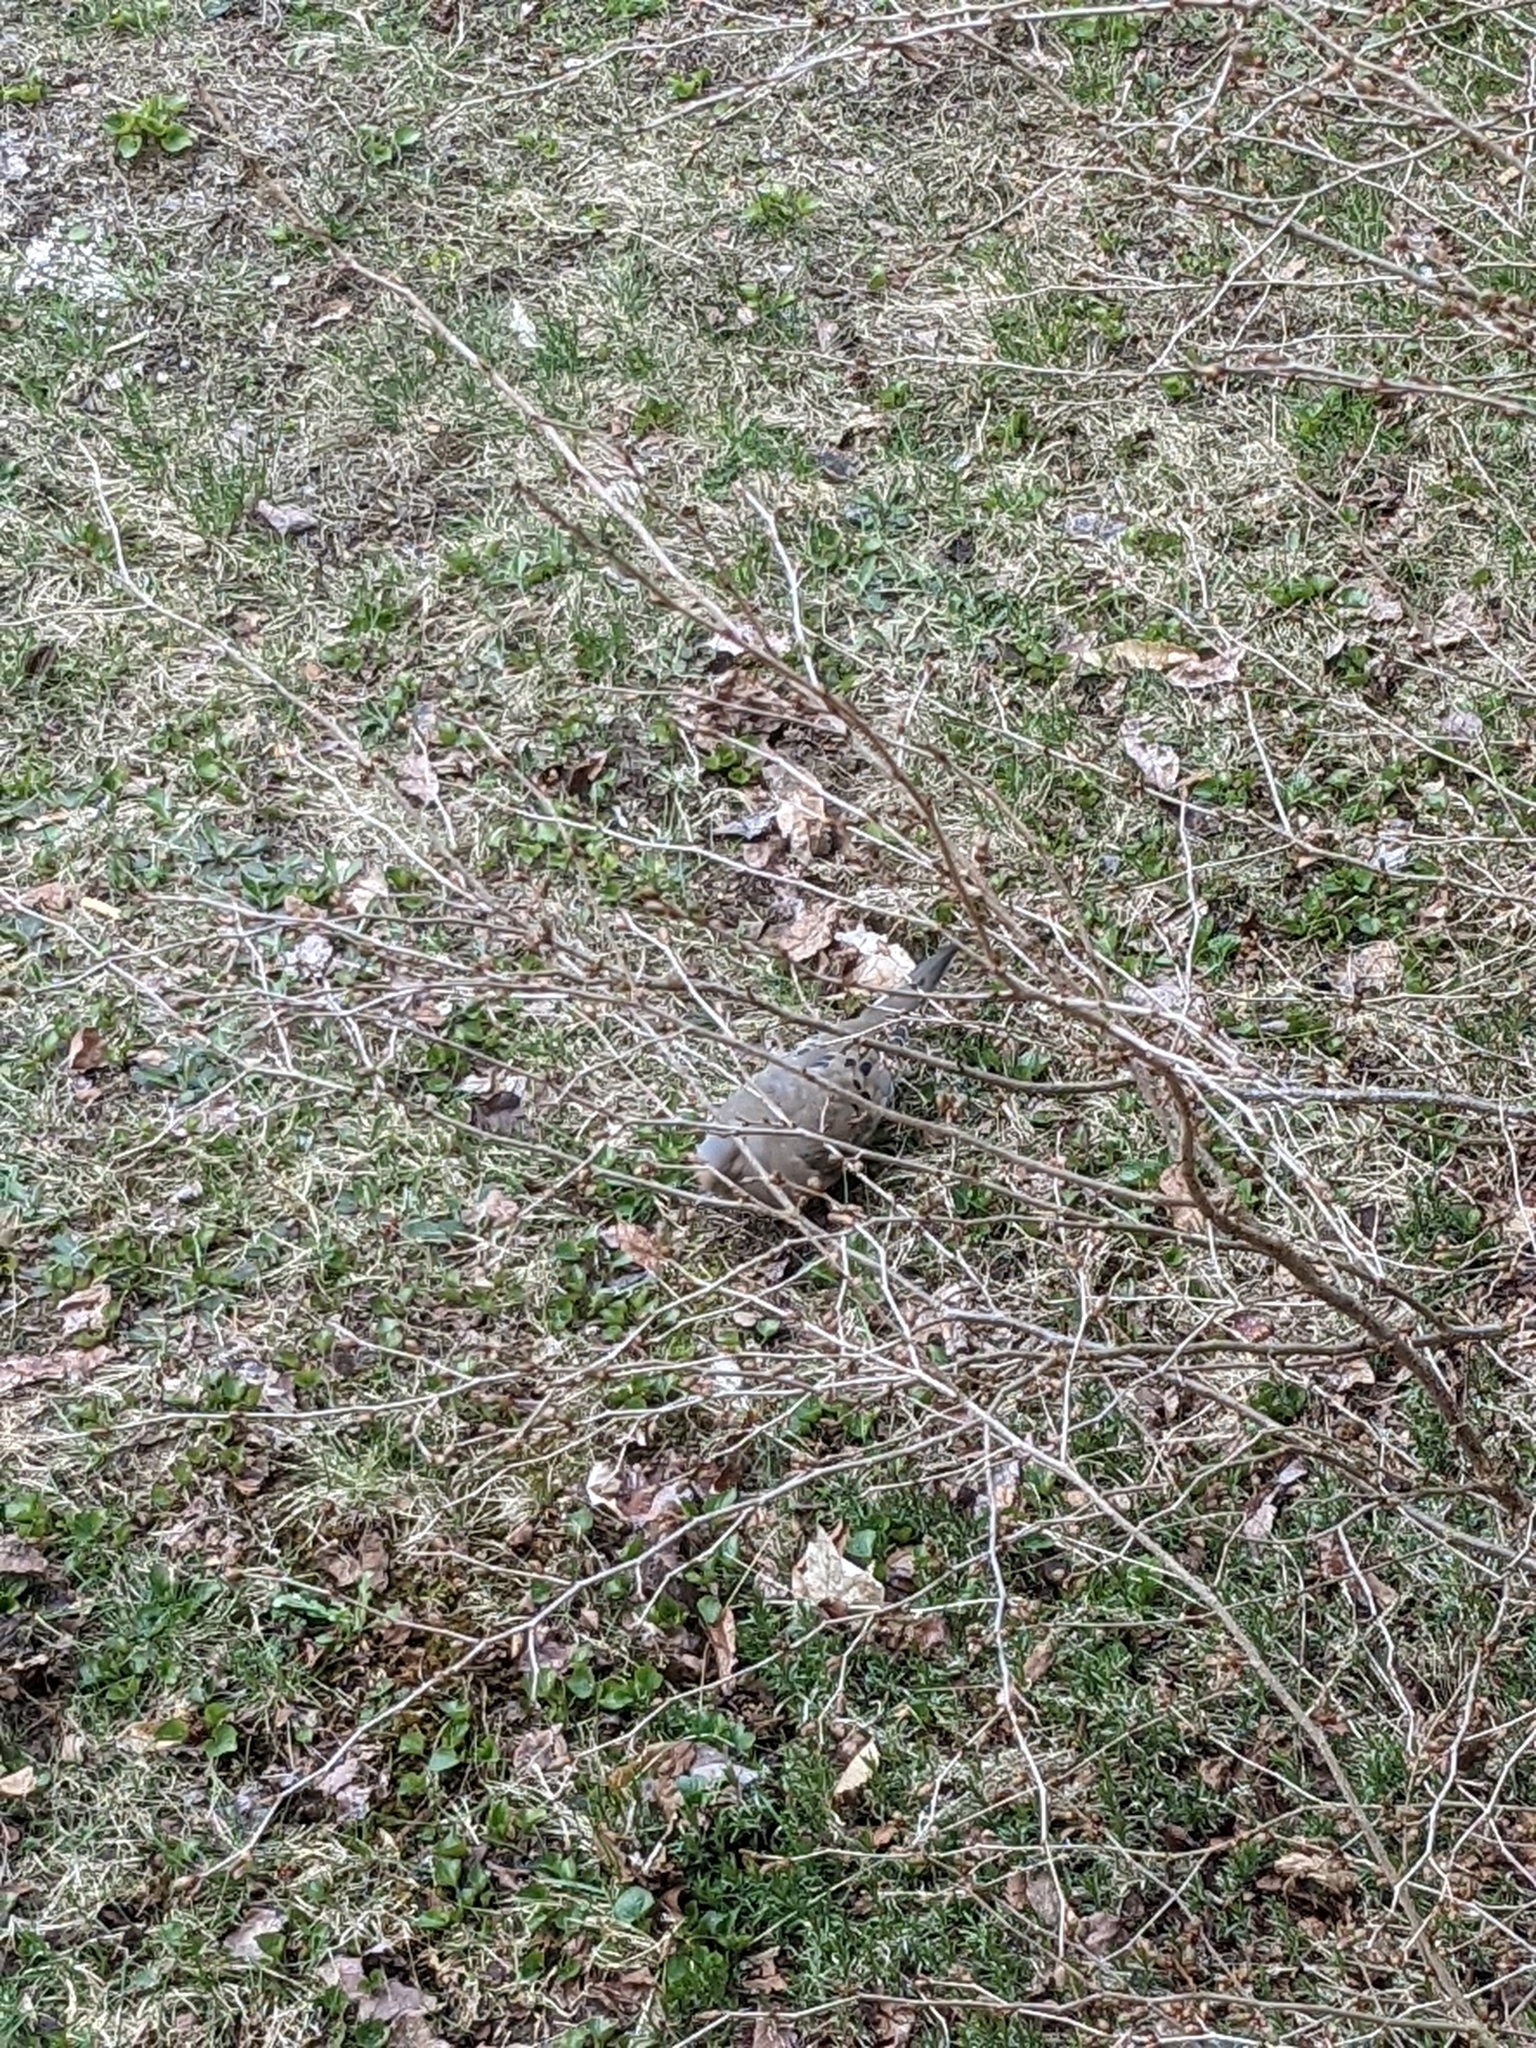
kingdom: Animalia
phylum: Chordata
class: Aves
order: Columbiformes
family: Columbidae
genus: Zenaida
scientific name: Zenaida macroura
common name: Mourning dove
